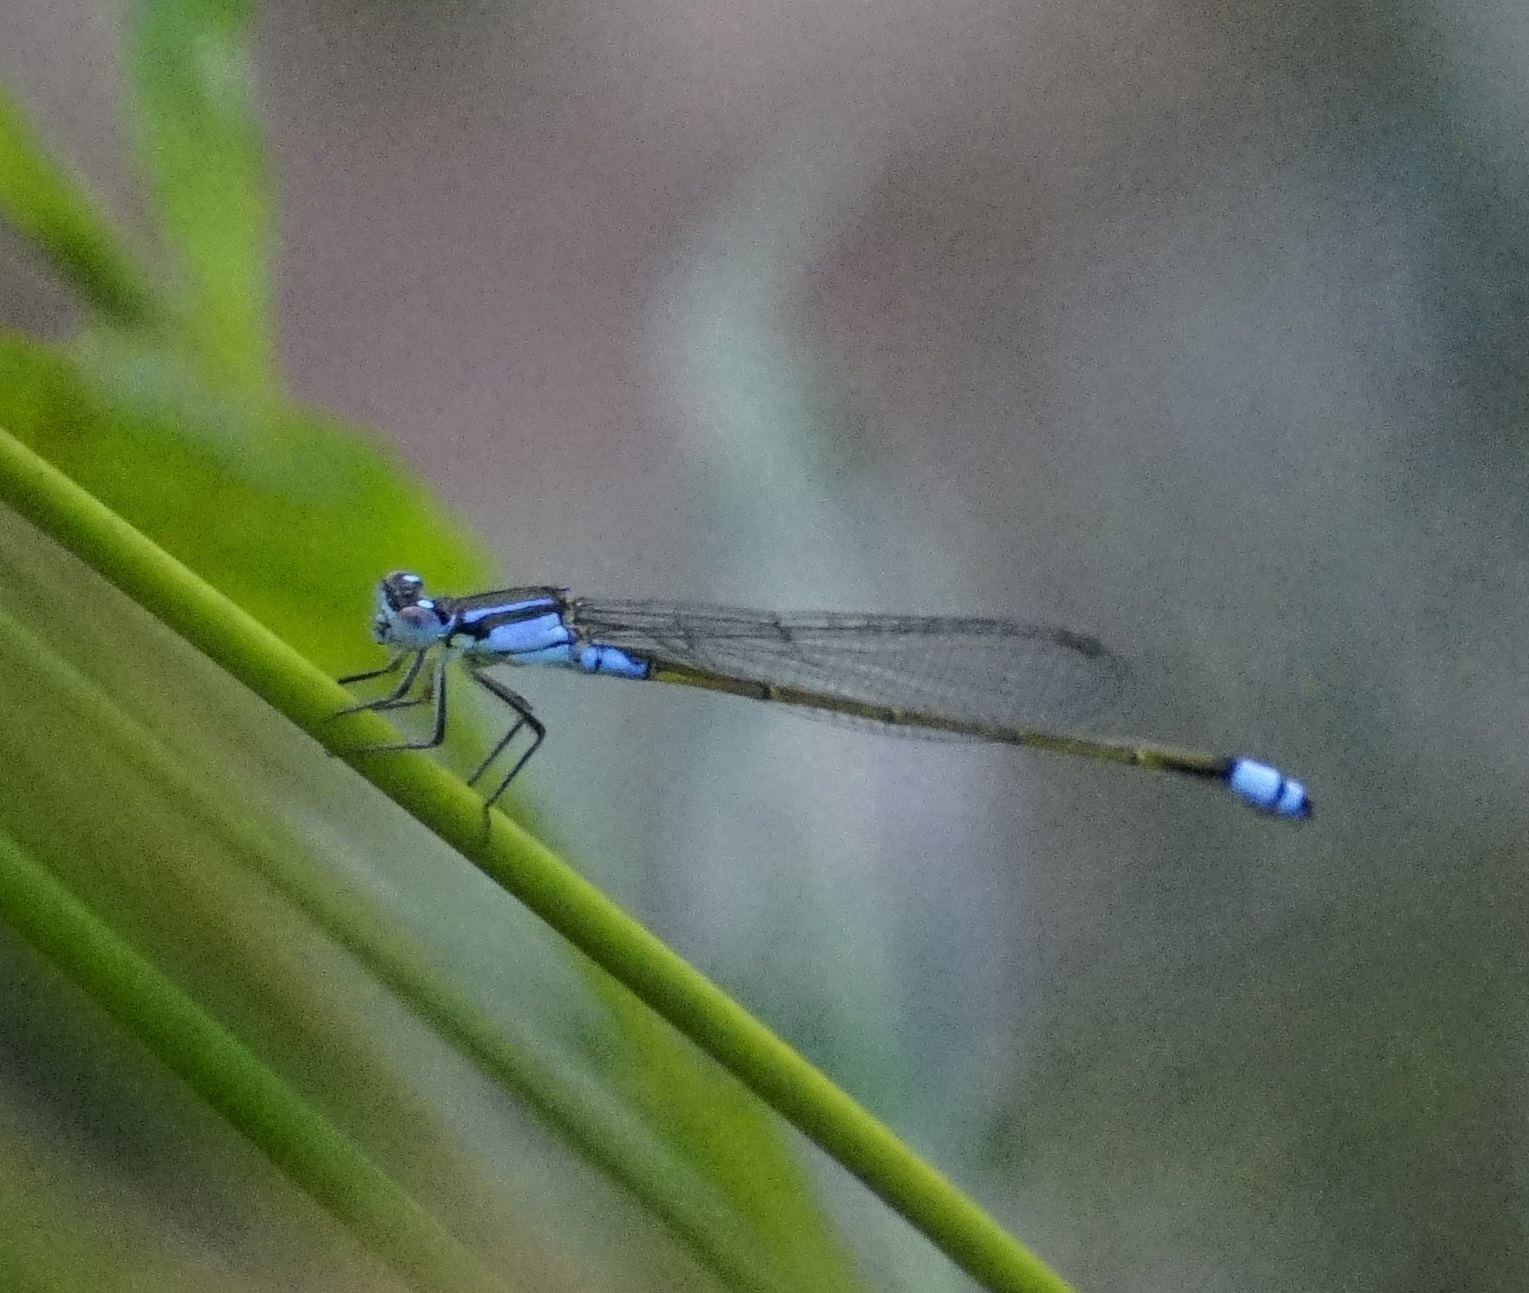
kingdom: Animalia
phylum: Arthropoda
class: Insecta
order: Odonata
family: Coenagrionidae
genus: Ischnura
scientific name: Ischnura heterosticta
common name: Common bluetail
